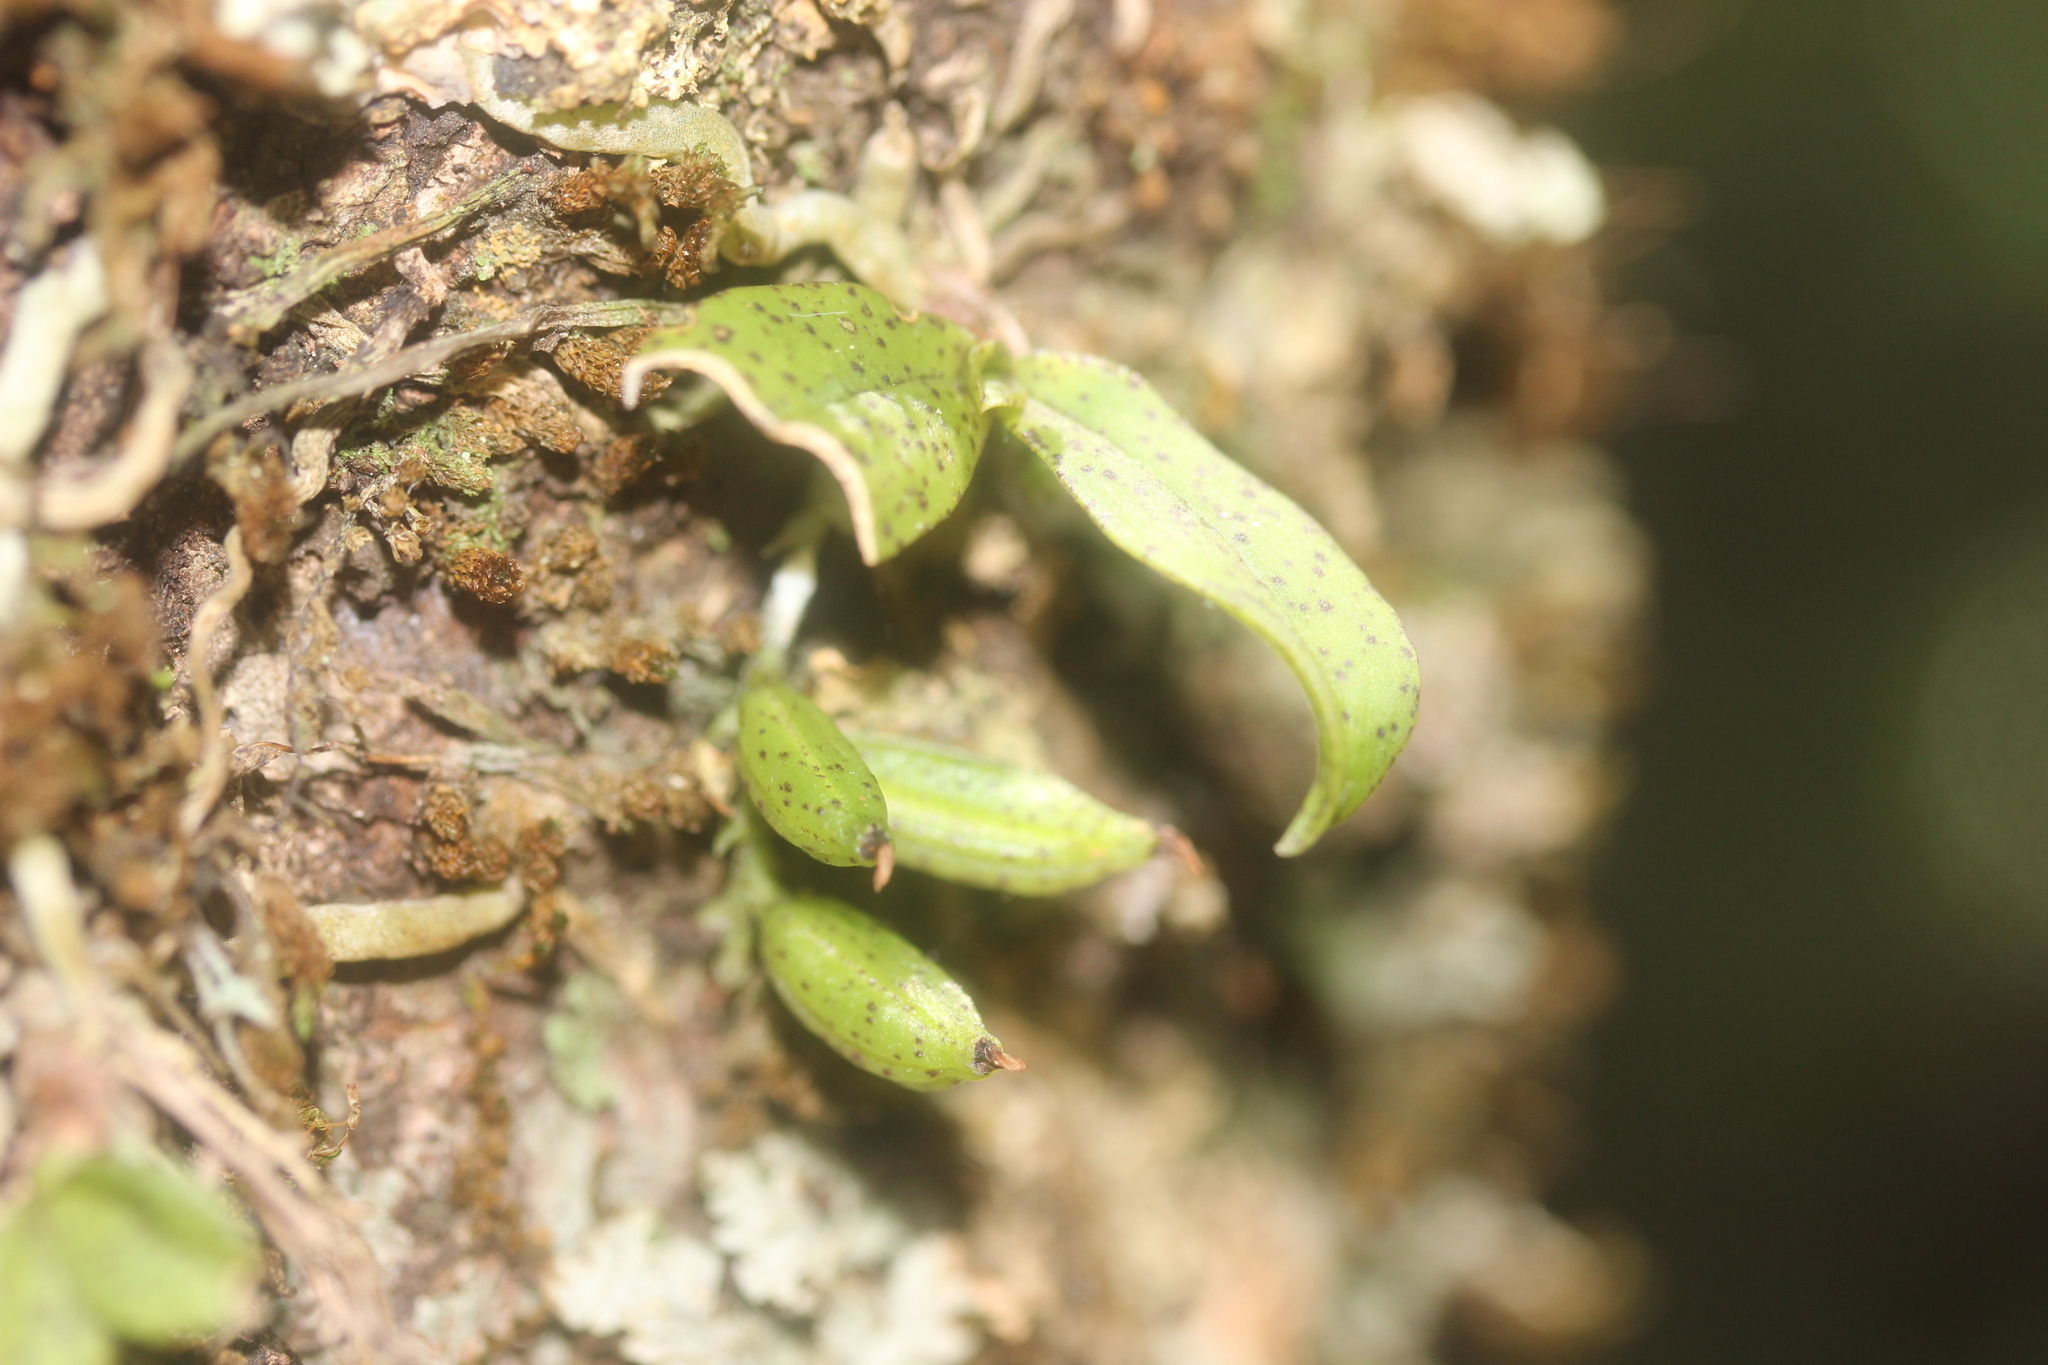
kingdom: Plantae
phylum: Tracheophyta
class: Liliopsida
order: Asparagales
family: Orchidaceae
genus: Drymoanthus
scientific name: Drymoanthus flavus
